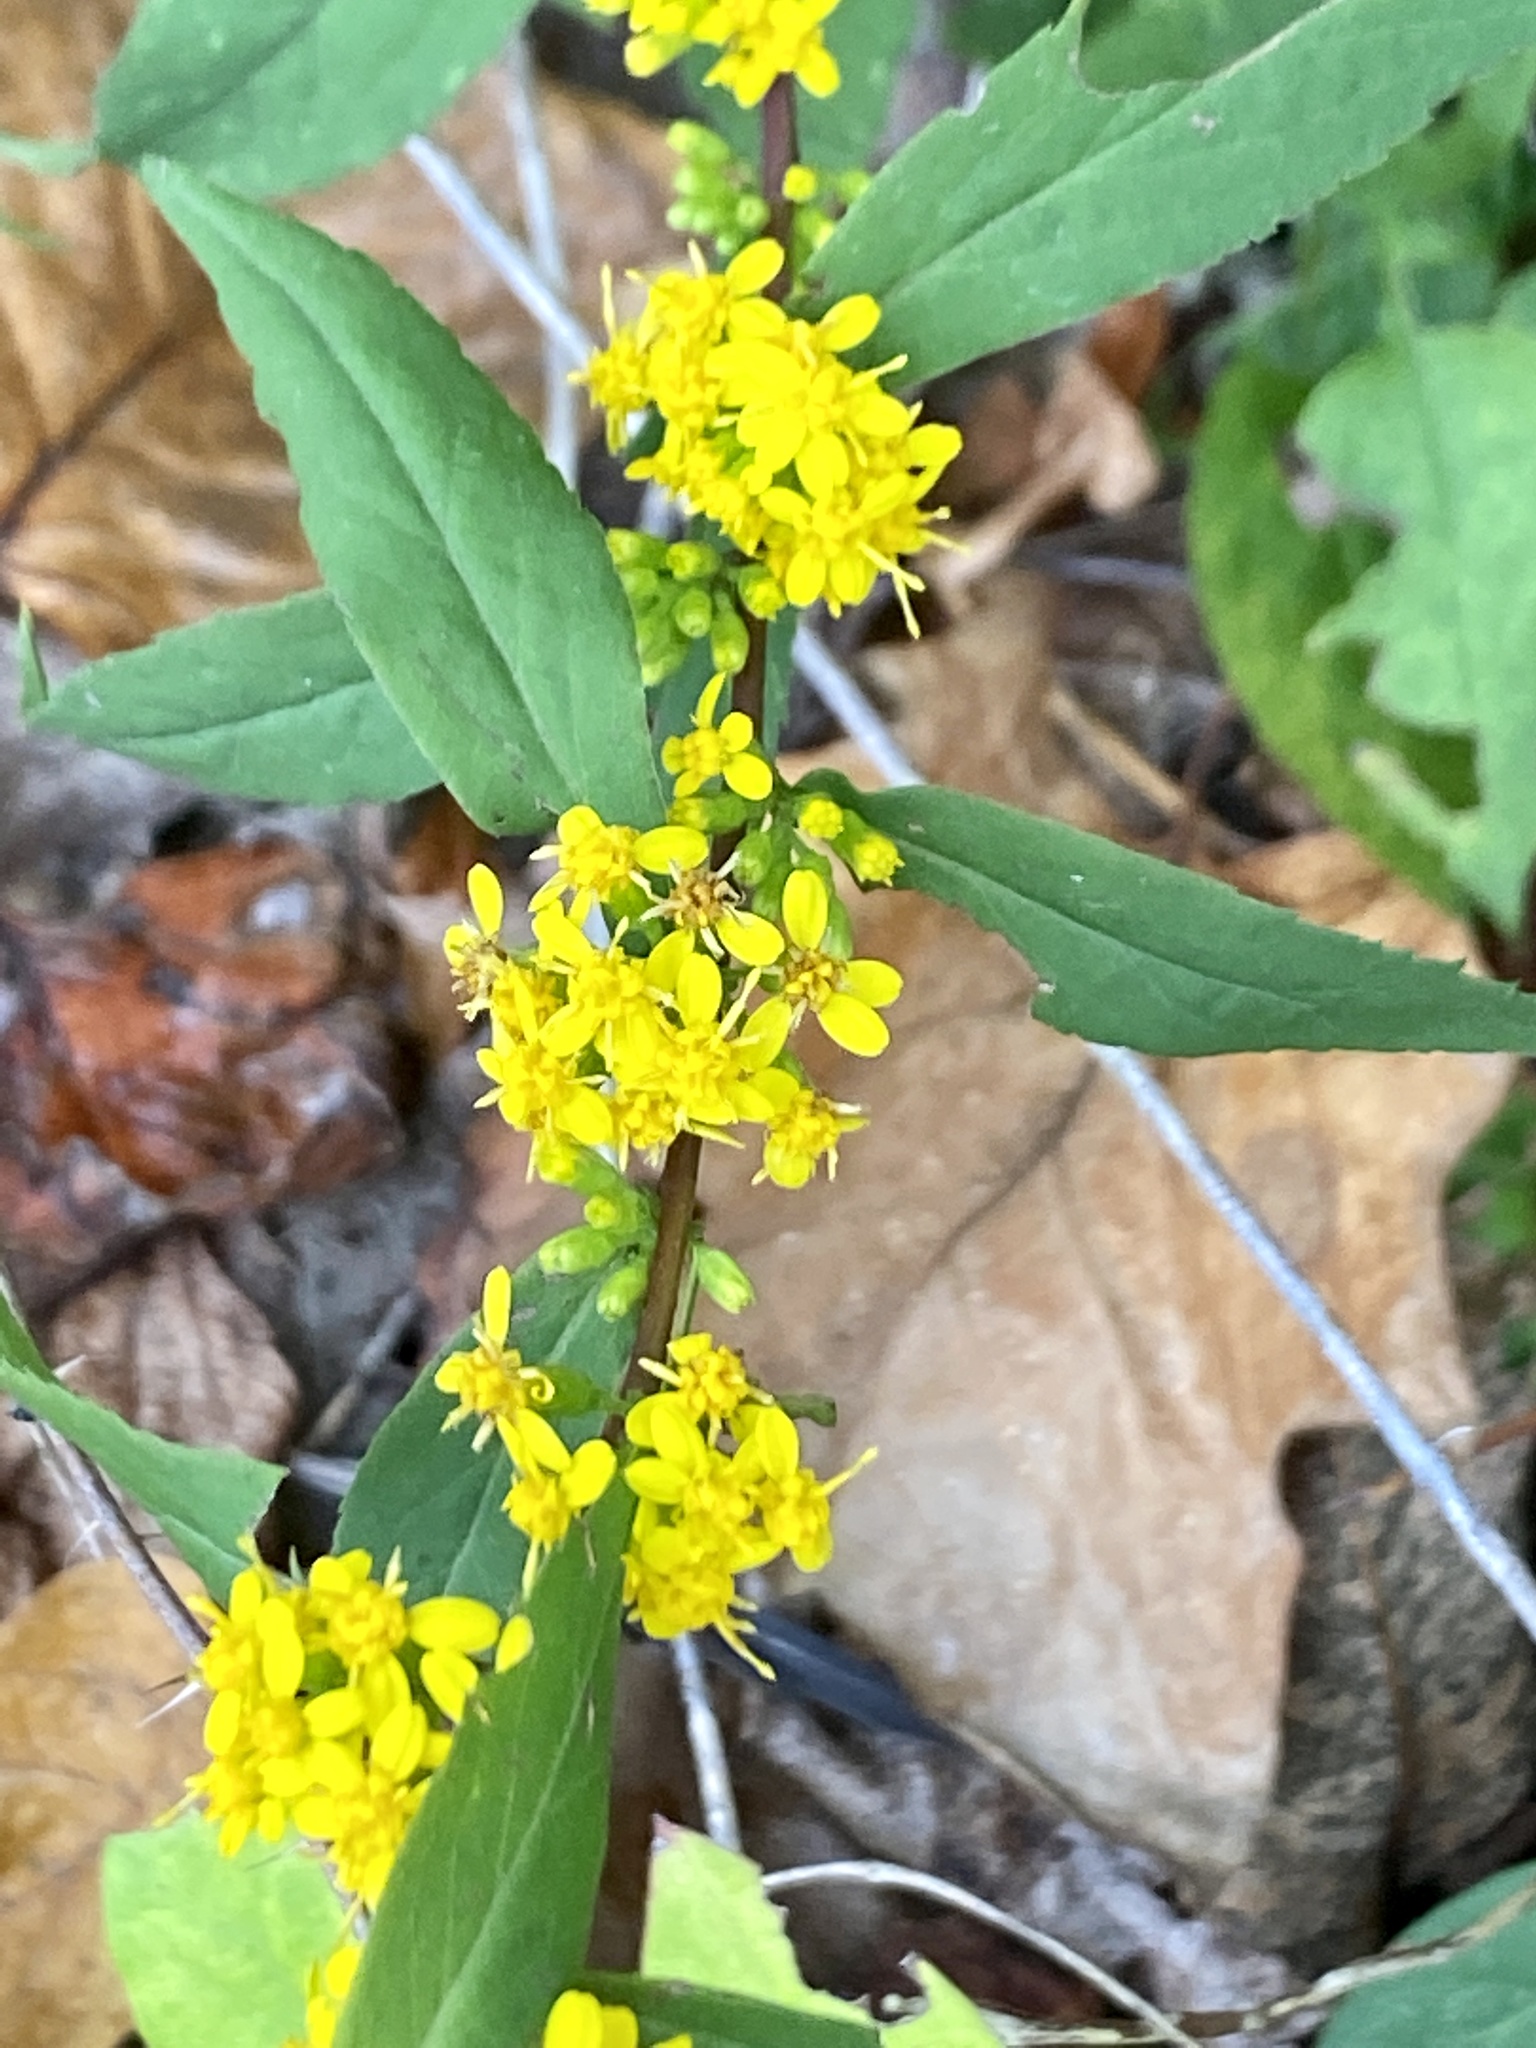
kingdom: Plantae
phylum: Tracheophyta
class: Magnoliopsida
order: Asterales
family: Asteraceae
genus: Solidago
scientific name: Solidago caesia
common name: Woodland goldenrod
